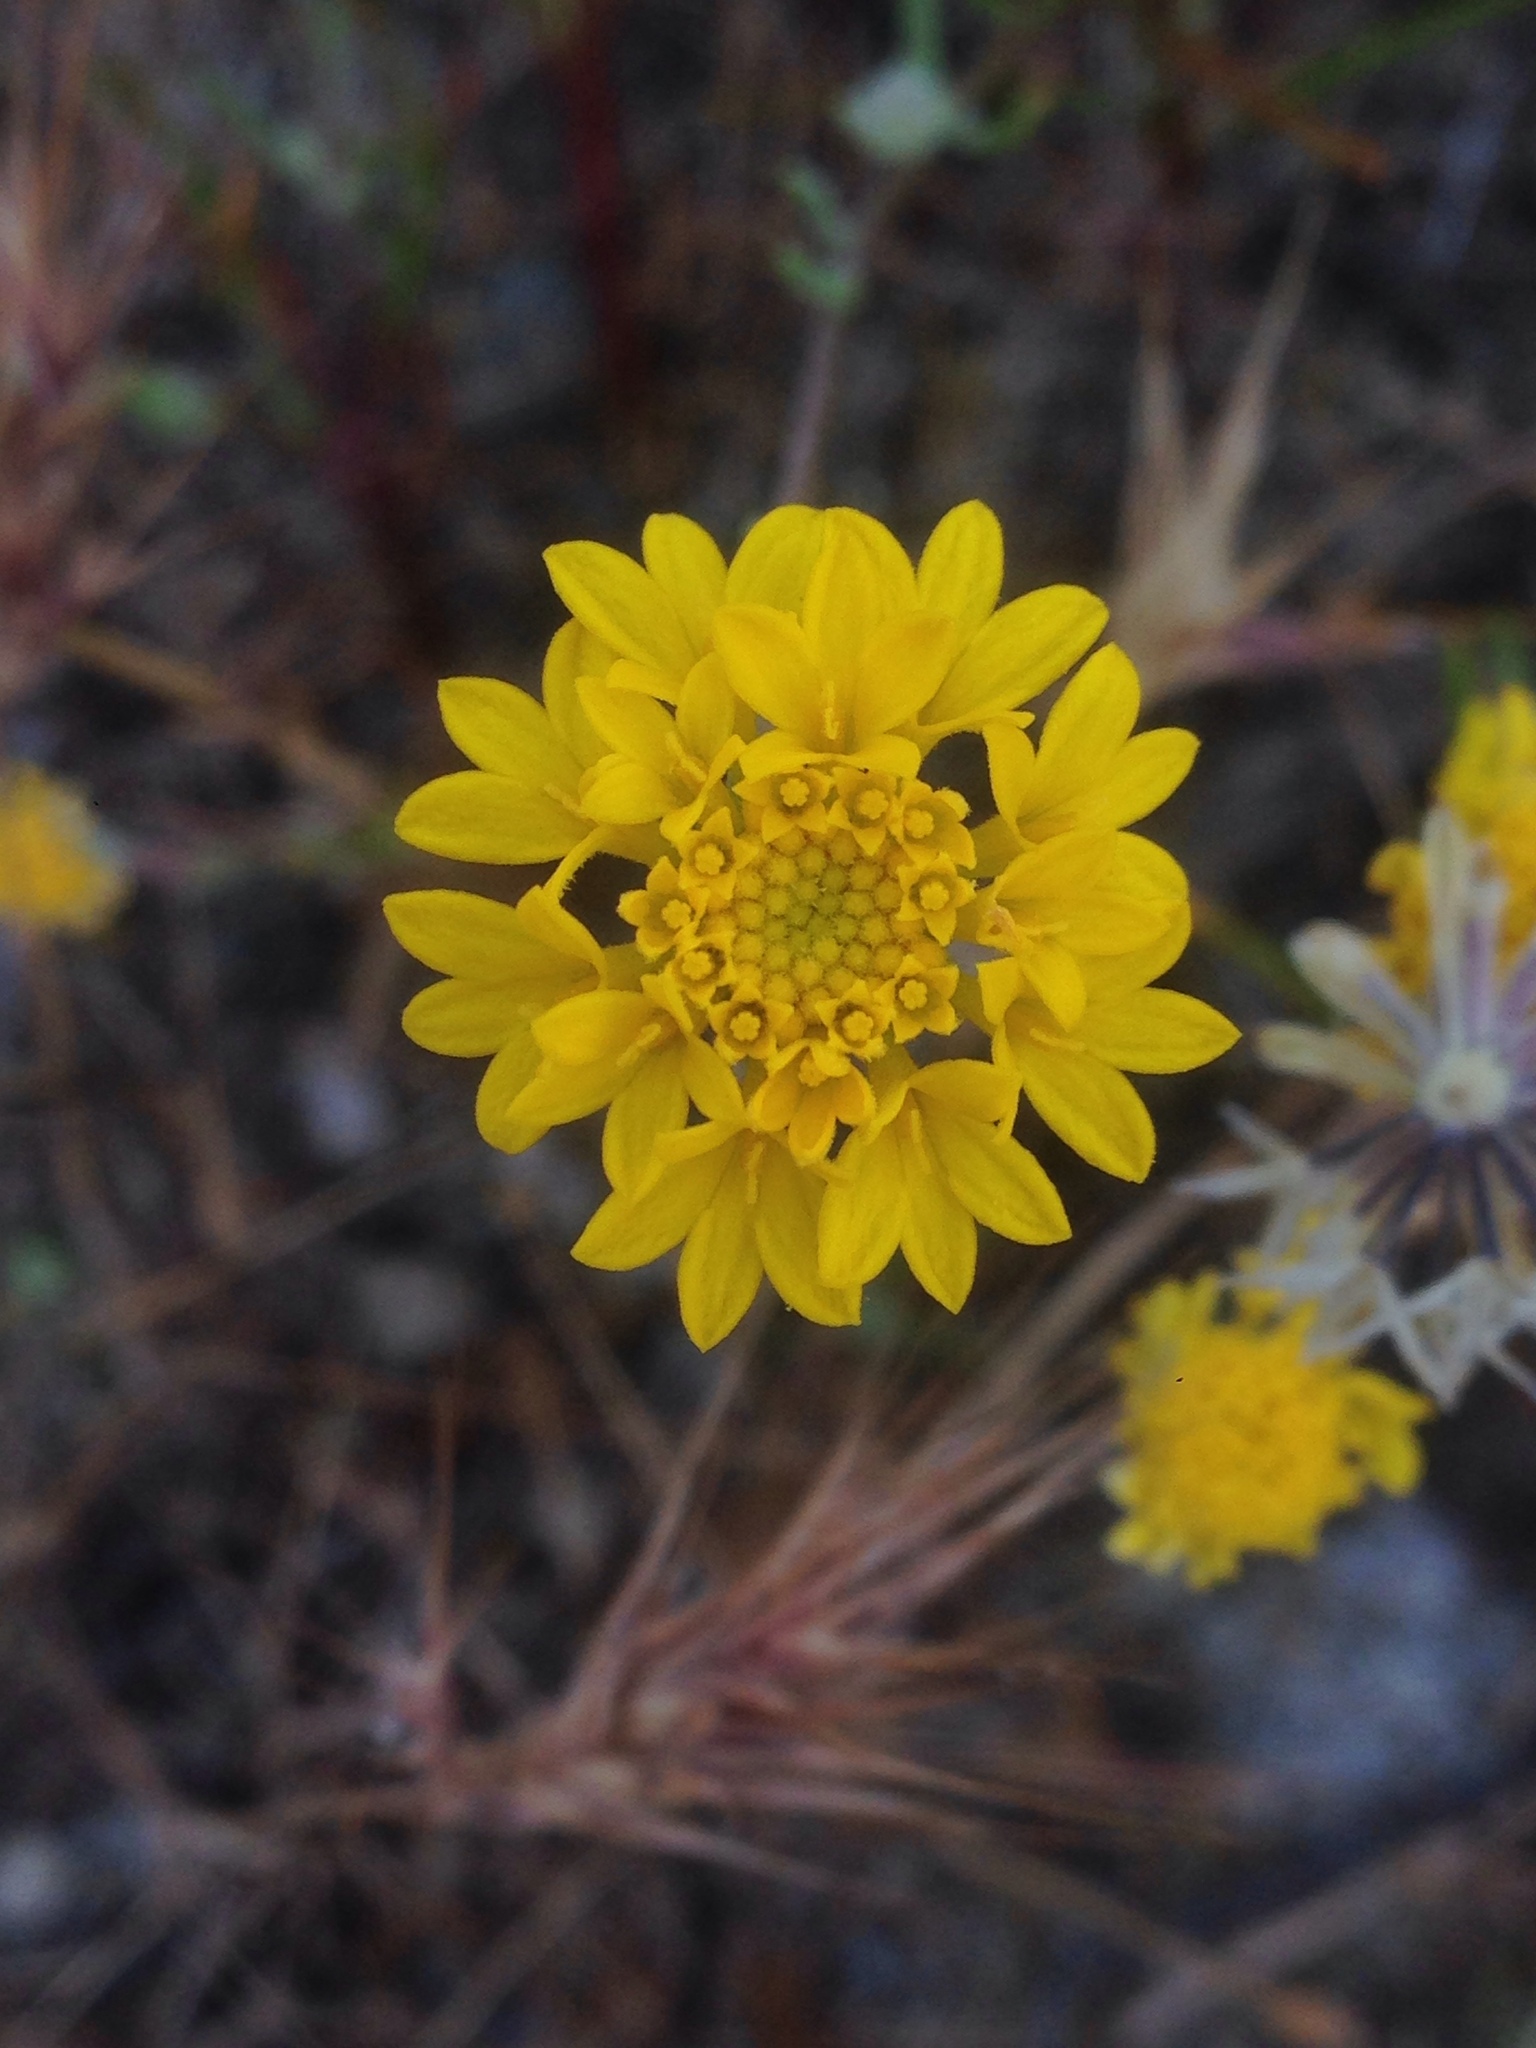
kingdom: Plantae
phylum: Tracheophyta
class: Magnoliopsida
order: Asterales
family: Asteraceae
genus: Chaenactis
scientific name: Chaenactis glabriuscula
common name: Yellow pincushion
